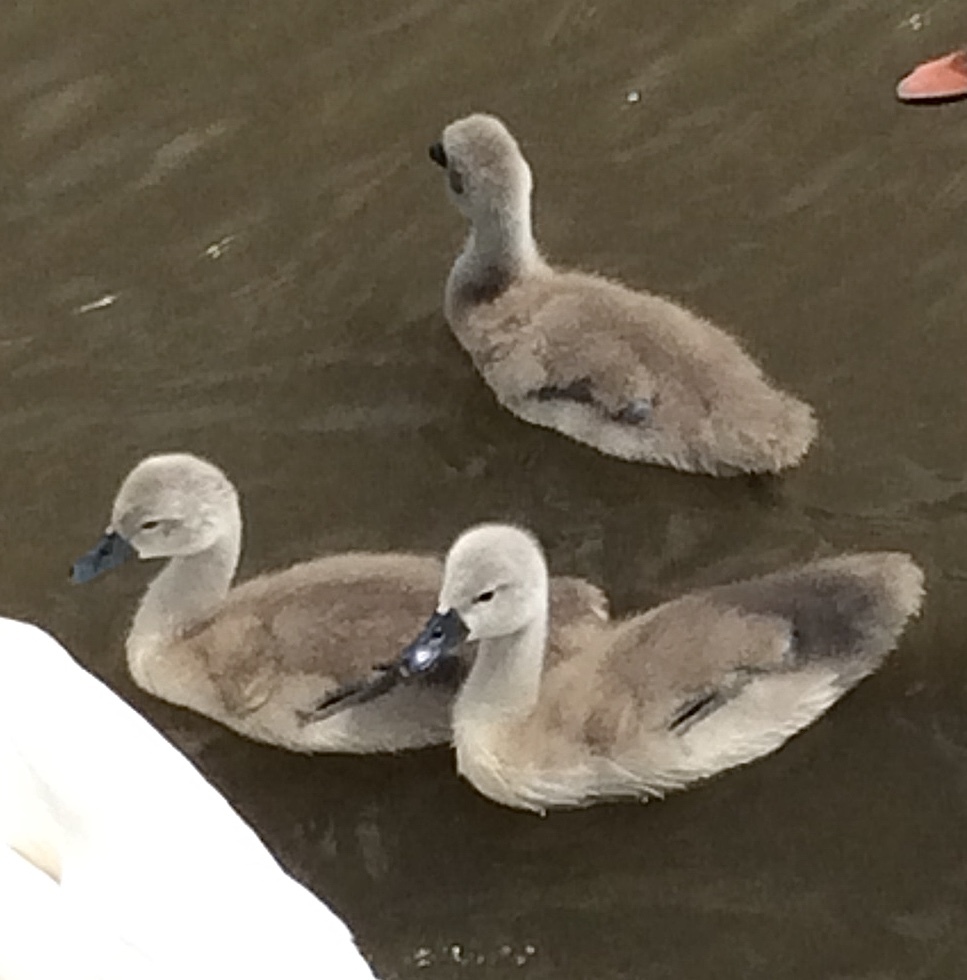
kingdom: Animalia
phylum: Chordata
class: Aves
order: Anseriformes
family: Anatidae
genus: Cygnus
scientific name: Cygnus olor
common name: Mute swan
